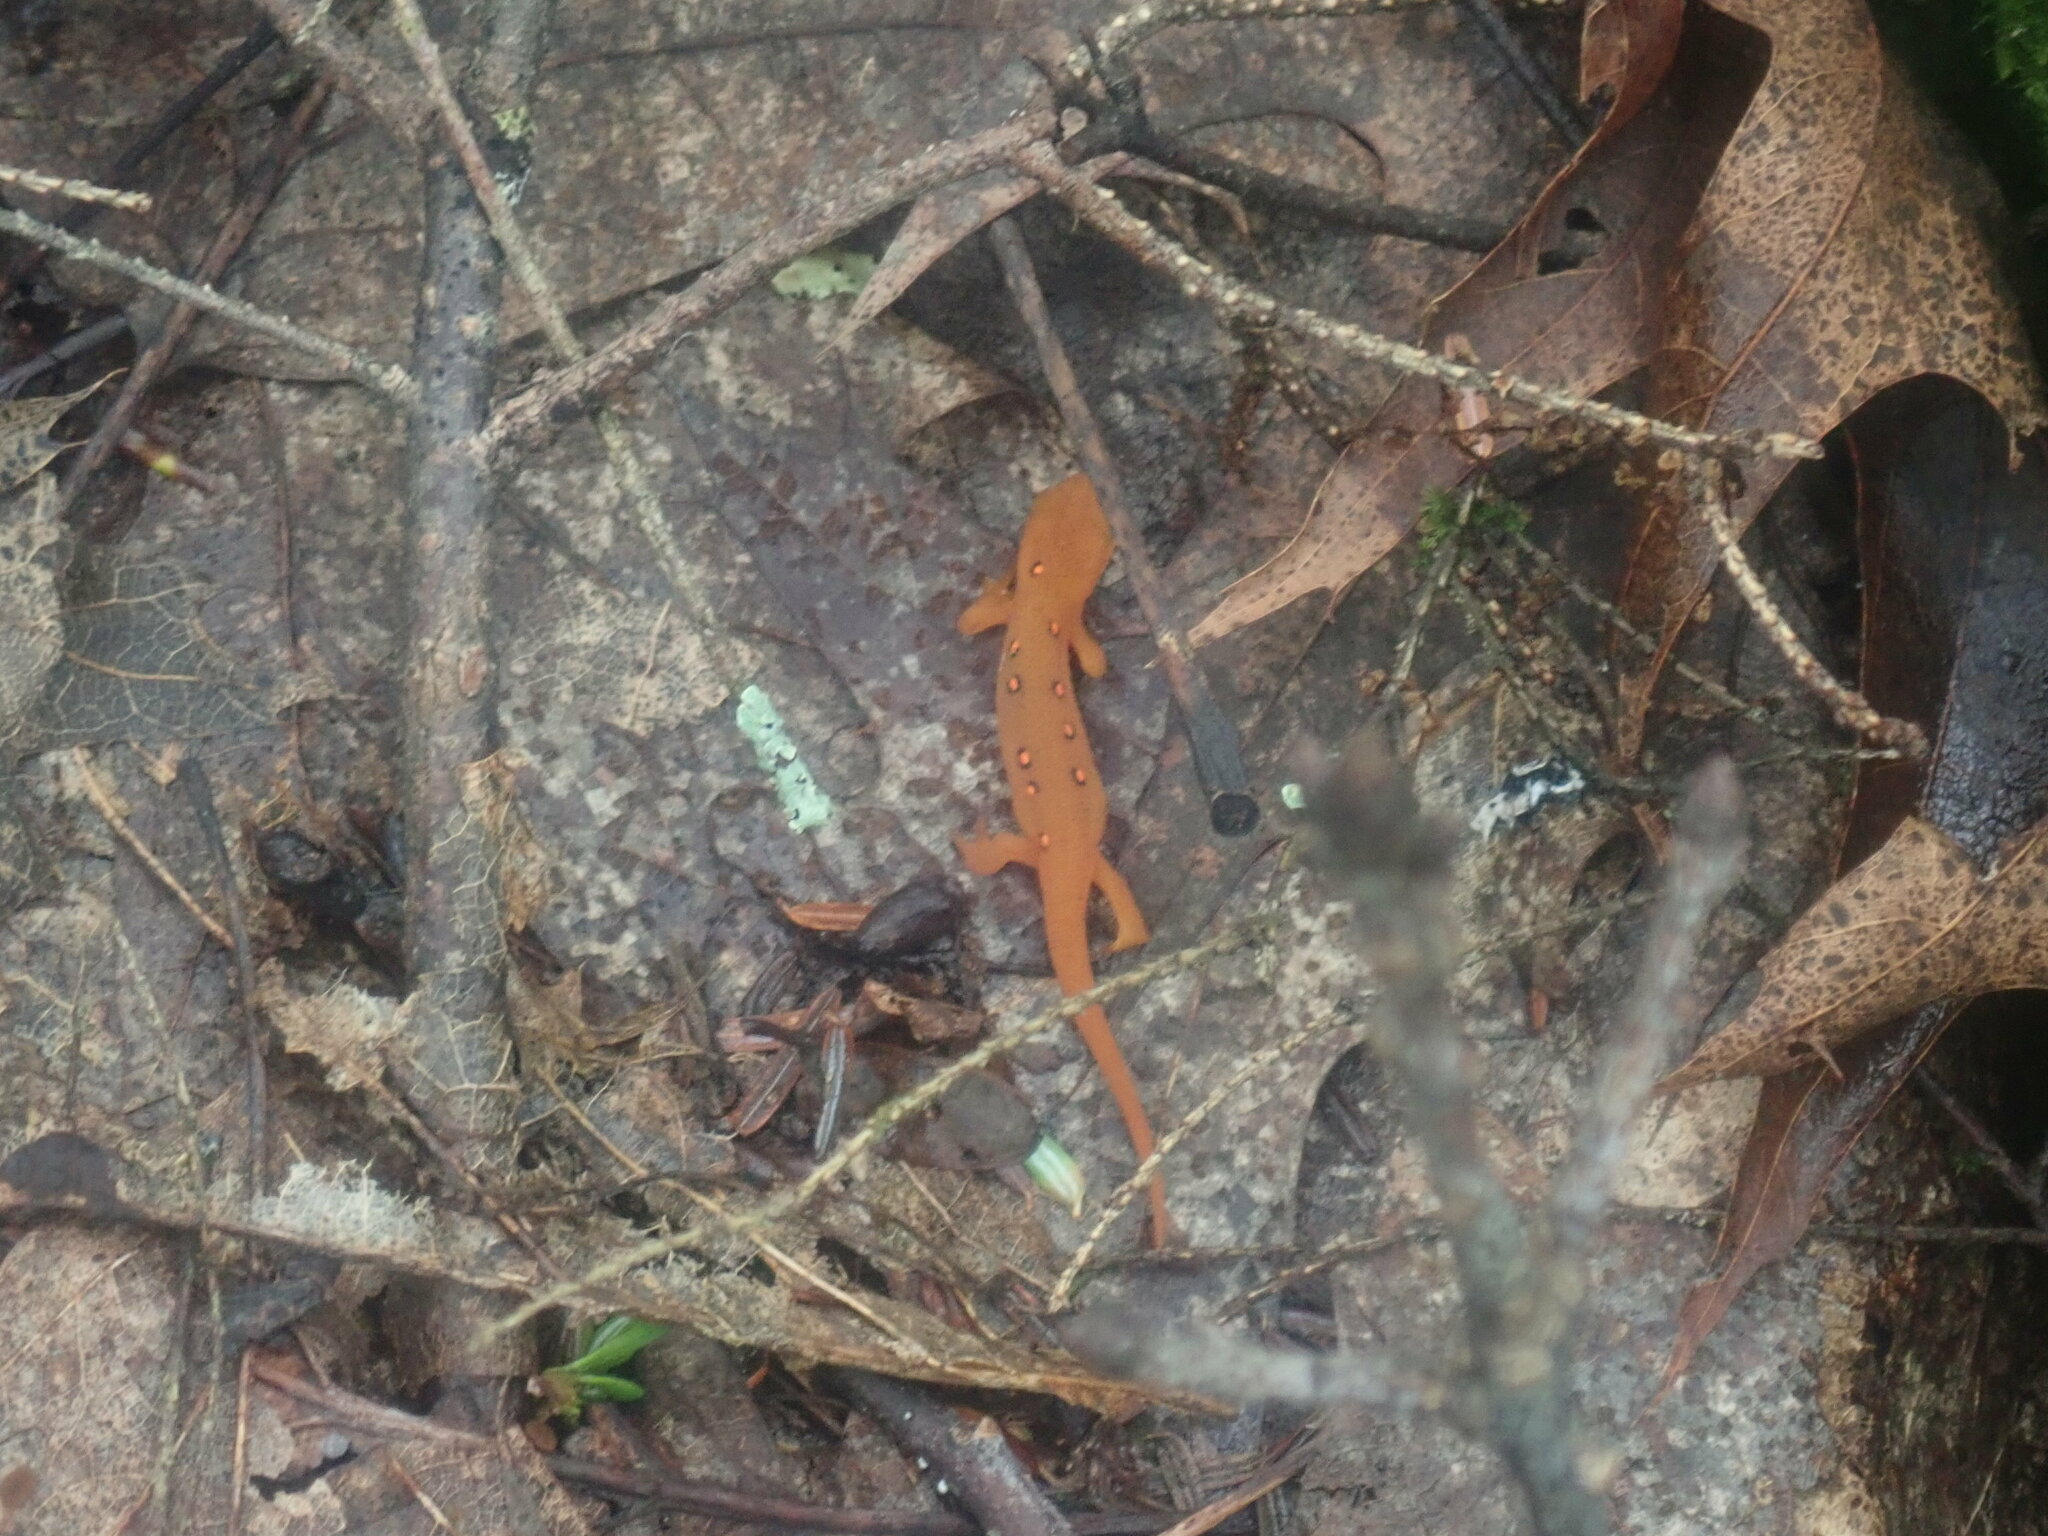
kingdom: Animalia
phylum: Chordata
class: Amphibia
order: Caudata
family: Salamandridae
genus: Notophthalmus
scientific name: Notophthalmus viridescens
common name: Eastern newt
